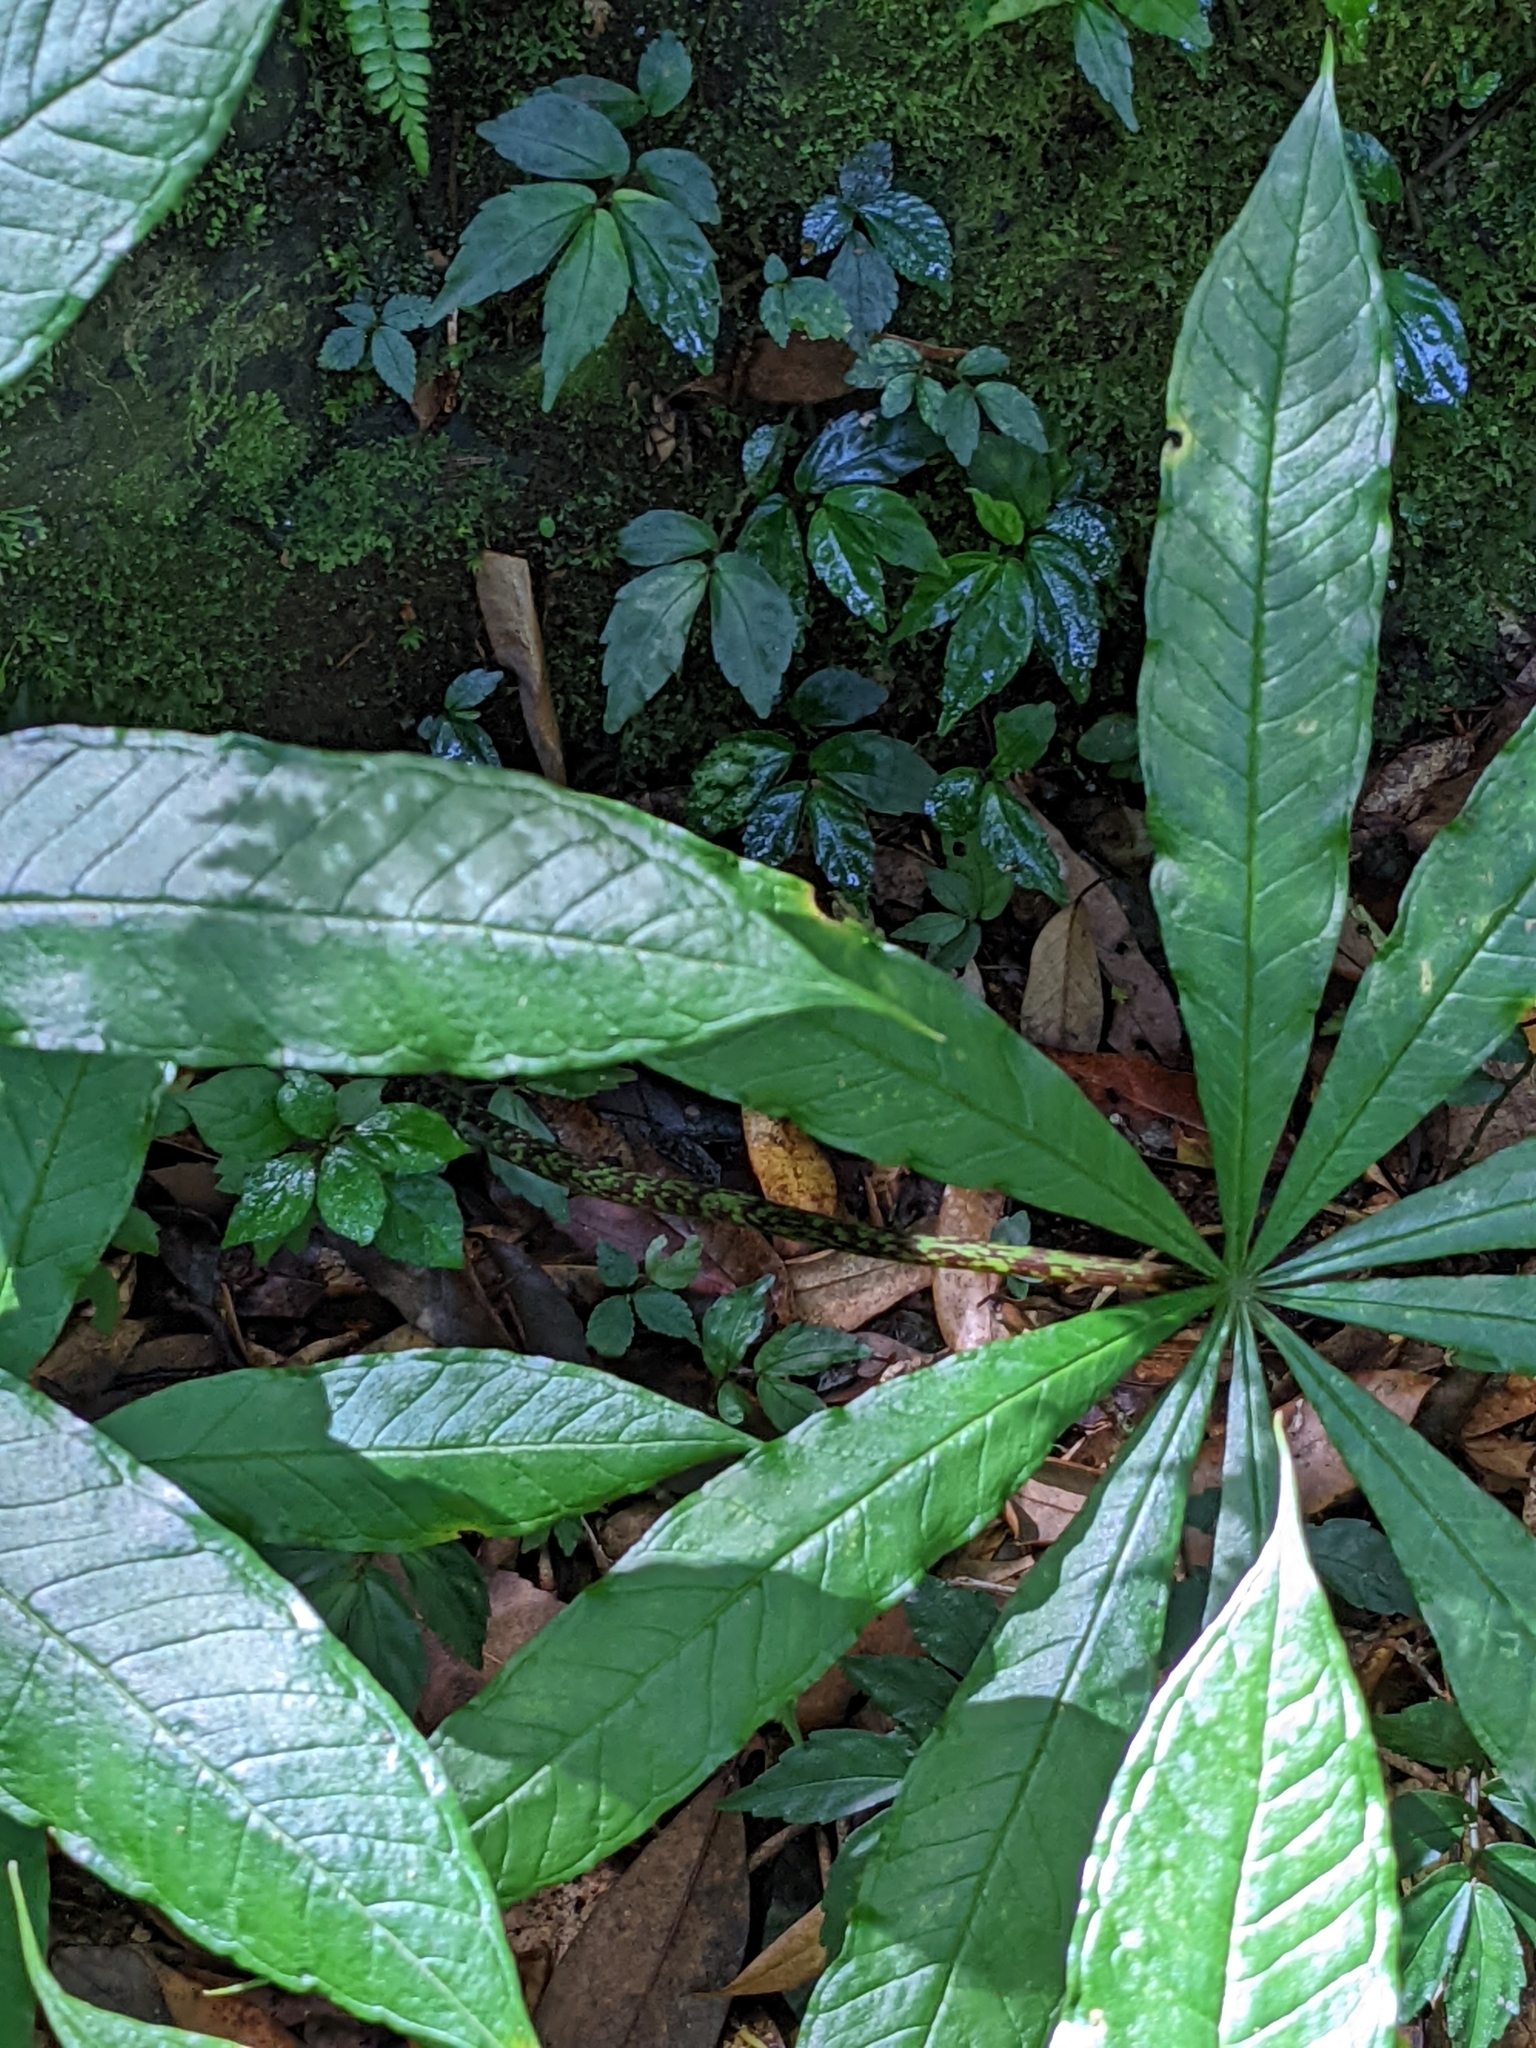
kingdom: Plantae
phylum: Tracheophyta
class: Liliopsida
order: Alismatales
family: Araceae
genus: Arisaema
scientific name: Arisaema taiwanense
